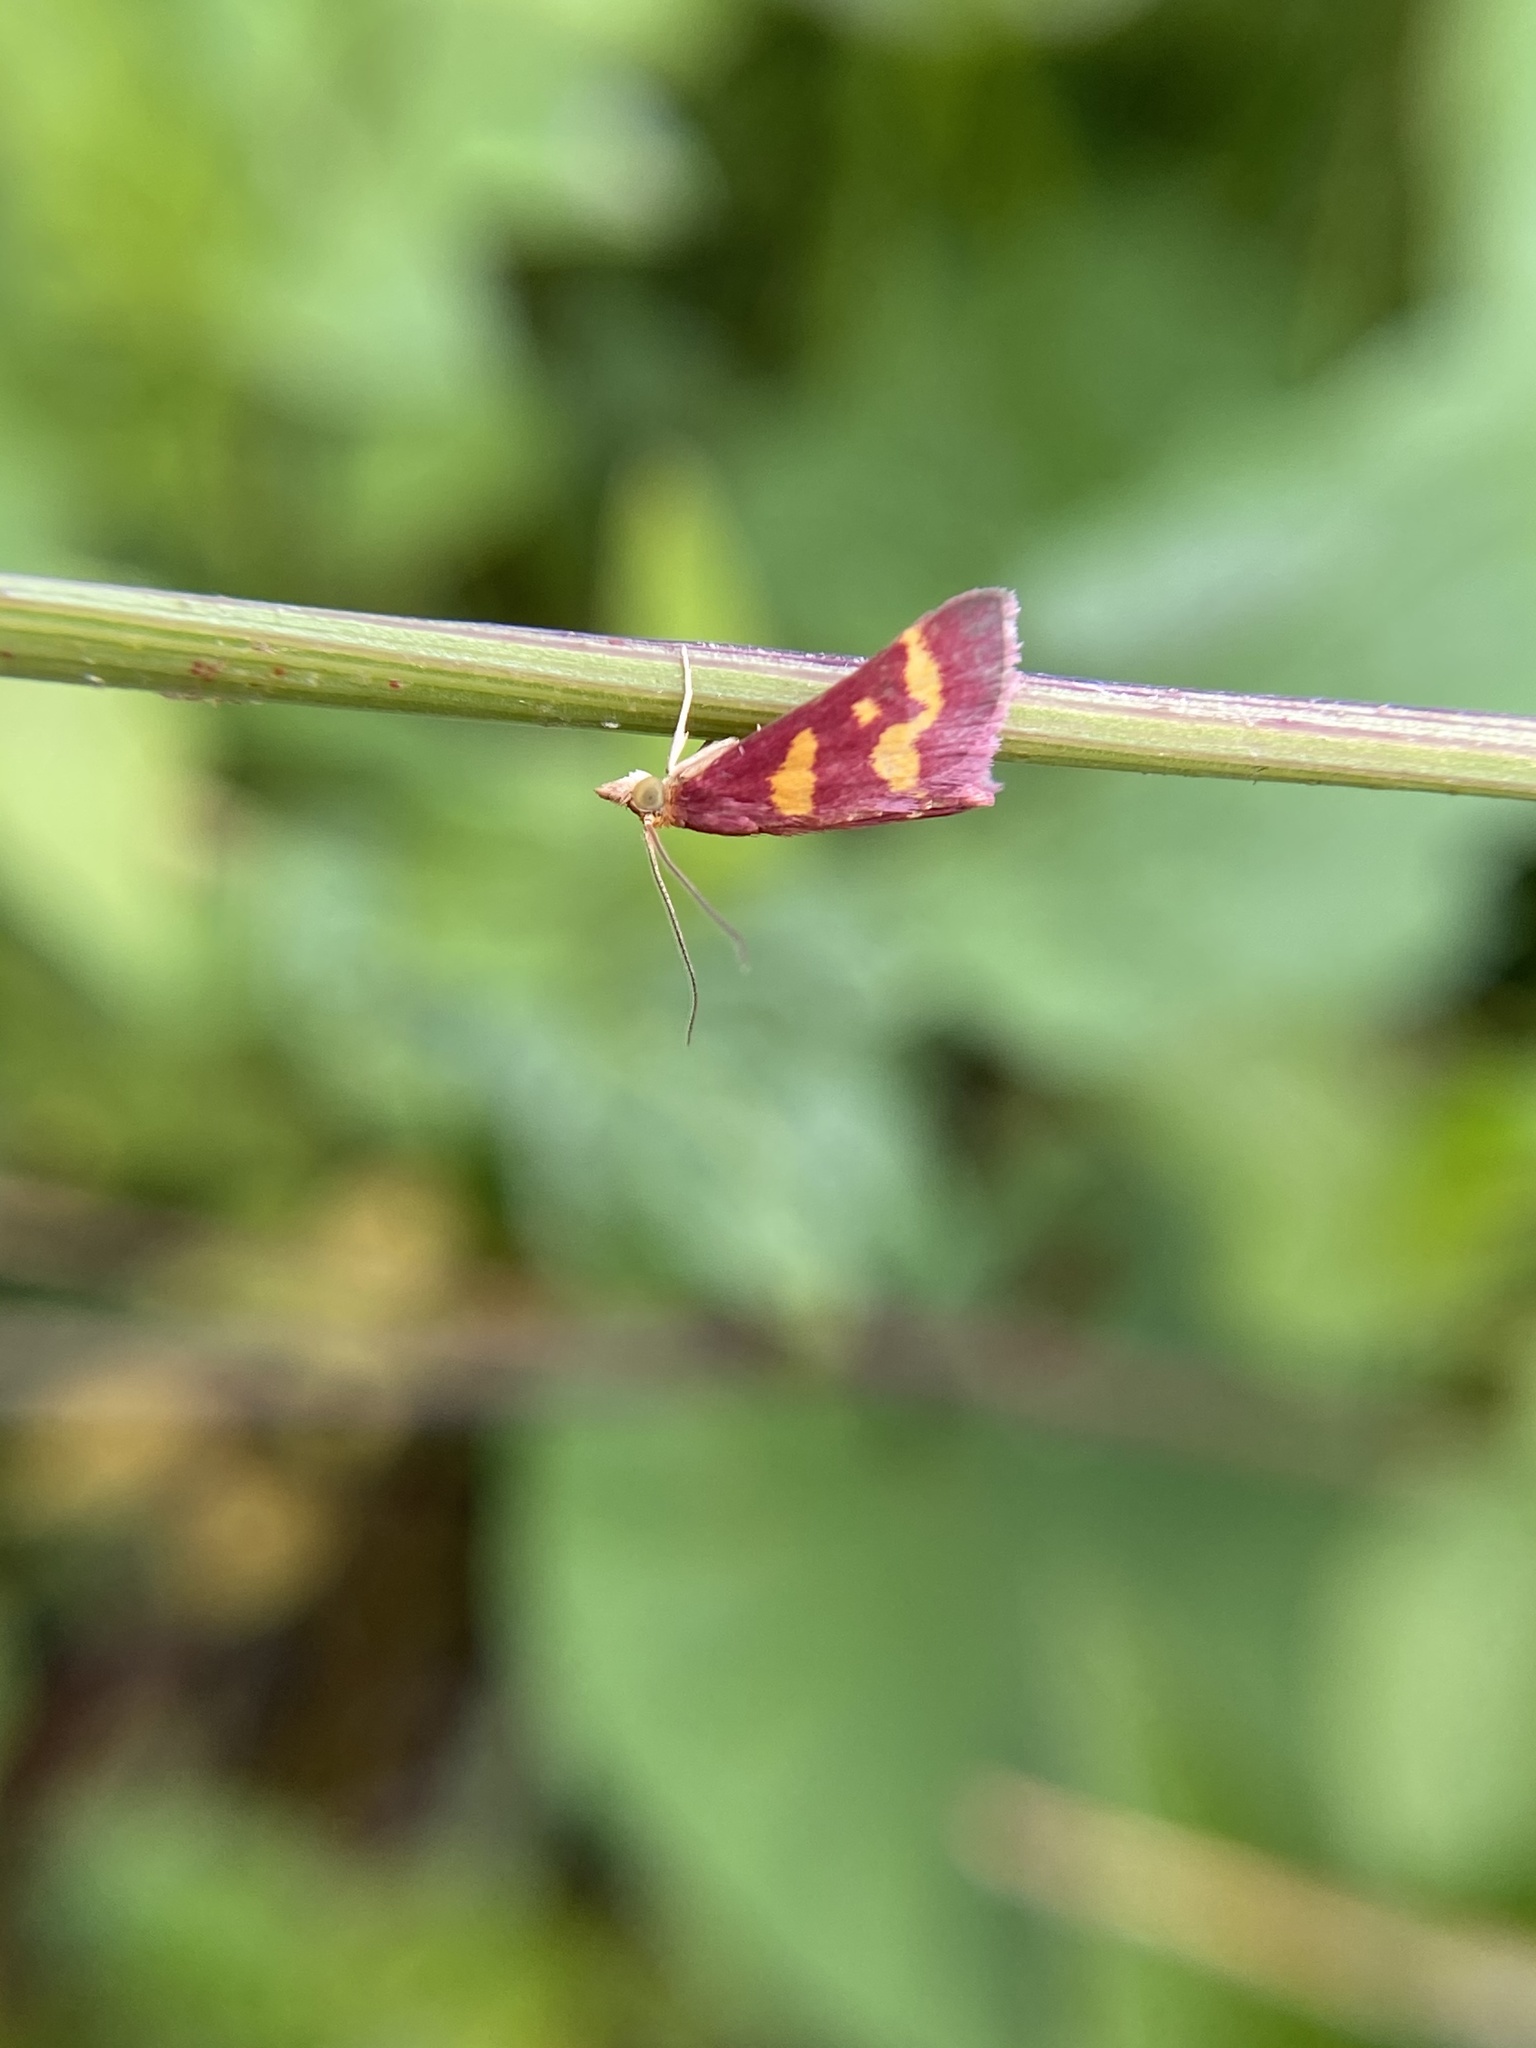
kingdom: Animalia
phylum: Arthropoda
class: Insecta
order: Lepidoptera
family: Crambidae
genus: Pyrausta
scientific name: Pyrausta tyralis
